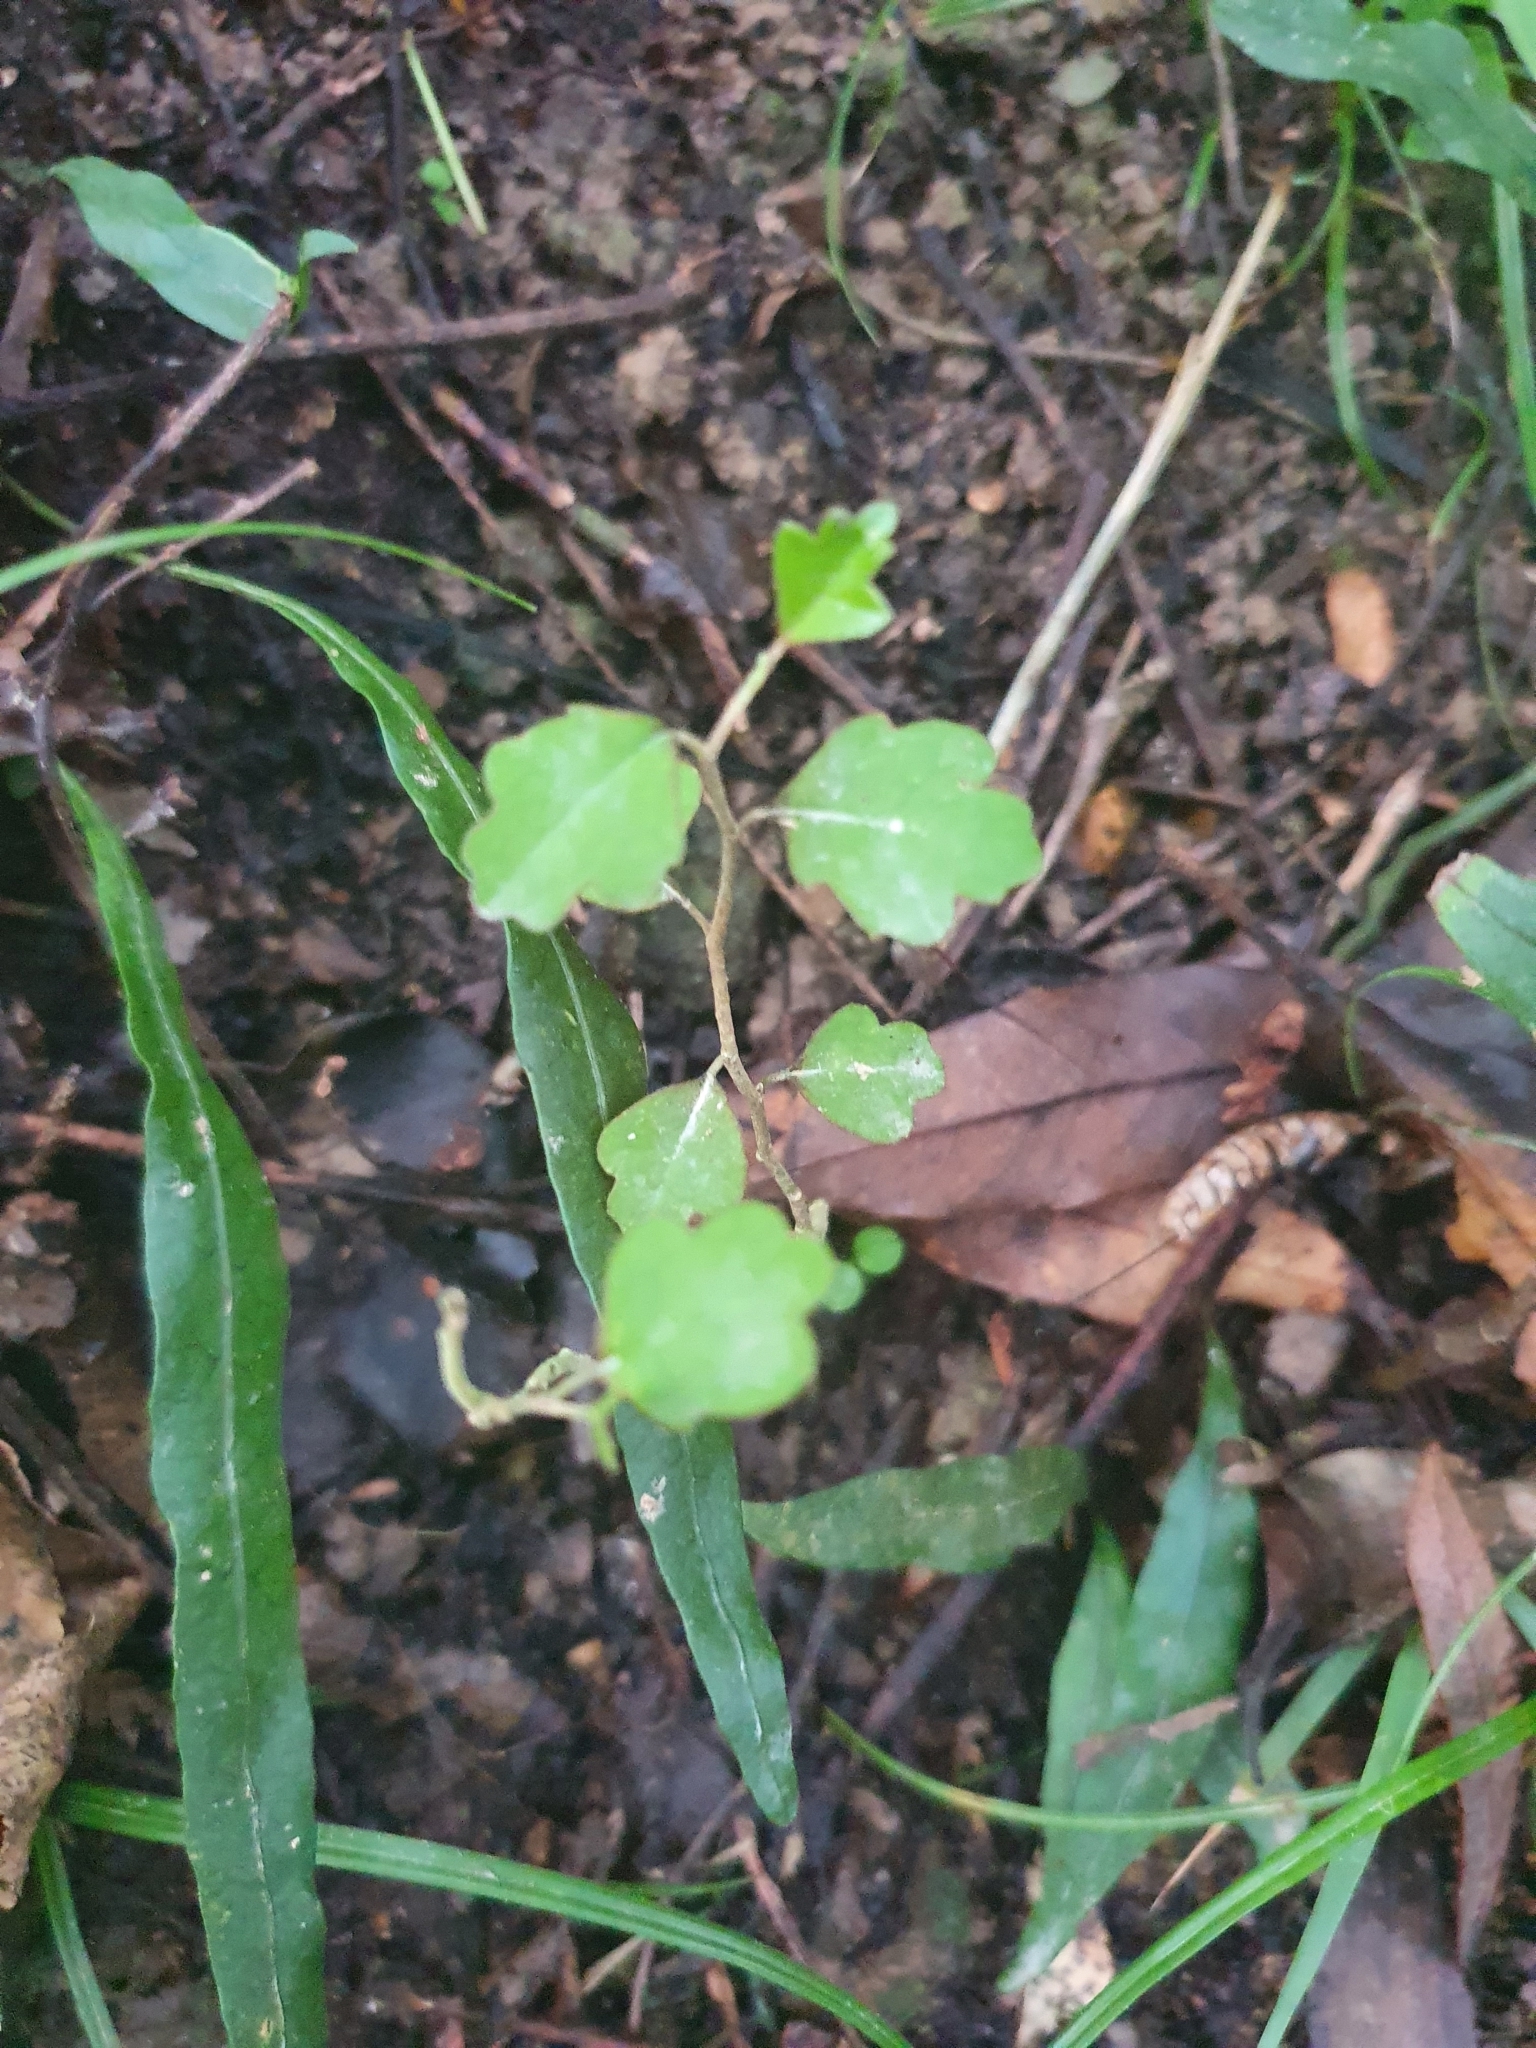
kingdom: Plantae
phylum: Tracheophyta
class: Magnoliopsida
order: Apiales
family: Pennantiaceae
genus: Pennantia
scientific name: Pennantia corymbosa
